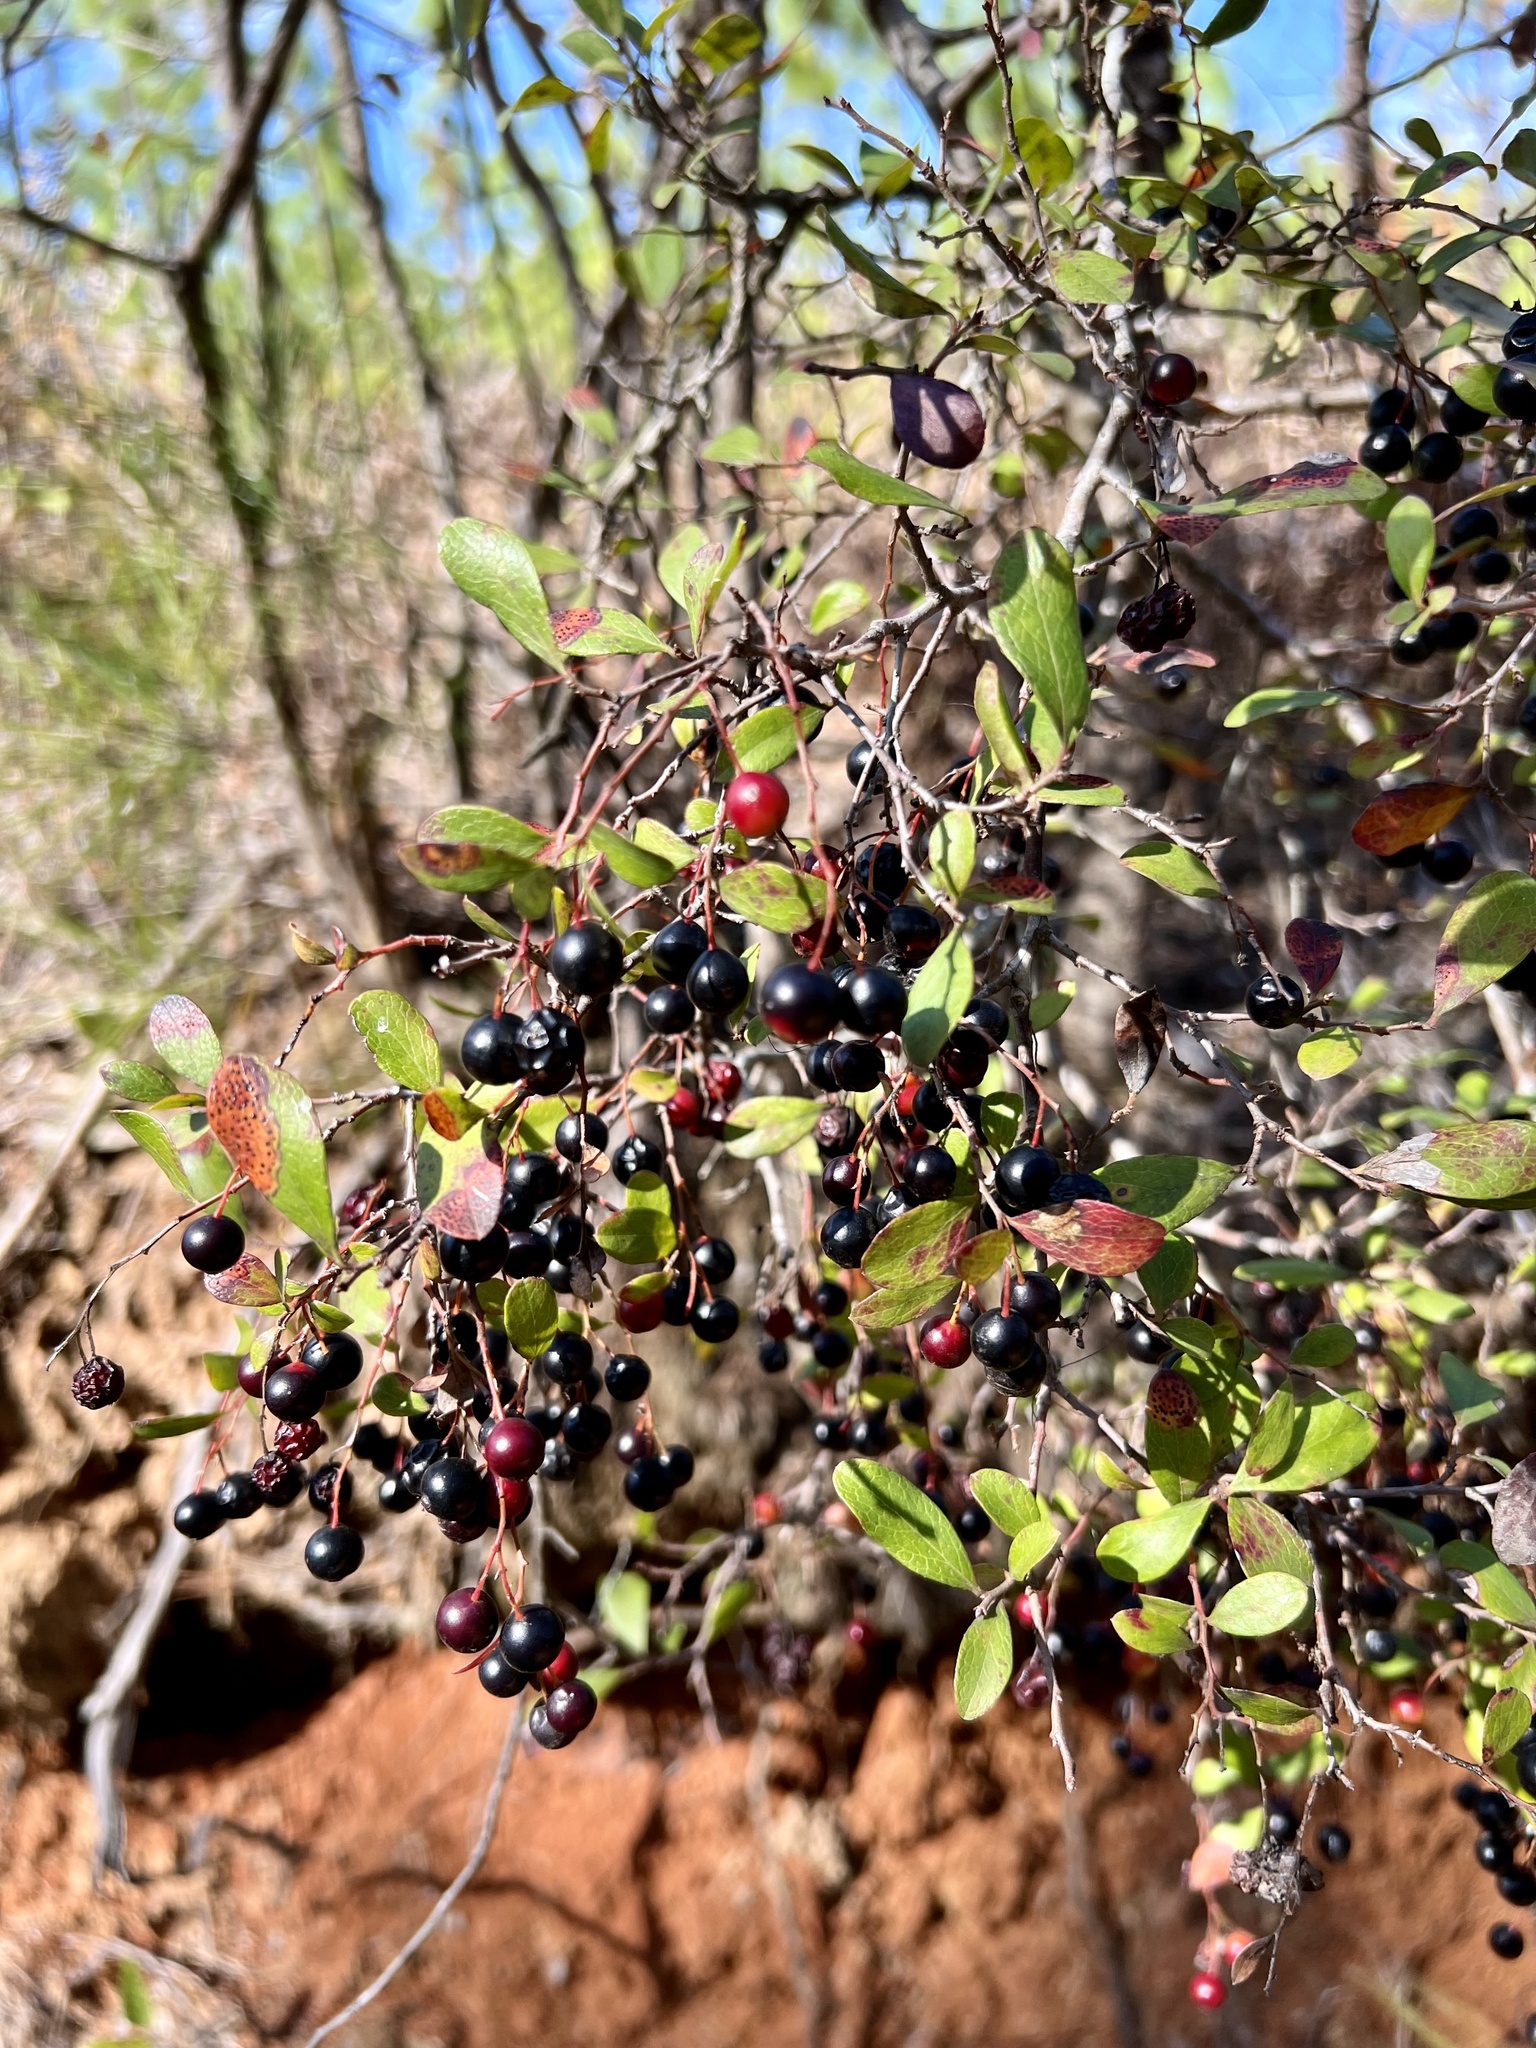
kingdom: Plantae
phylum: Tracheophyta
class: Magnoliopsida
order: Ericales
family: Ericaceae
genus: Vaccinium
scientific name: Vaccinium arboreum
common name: Farkleberry
